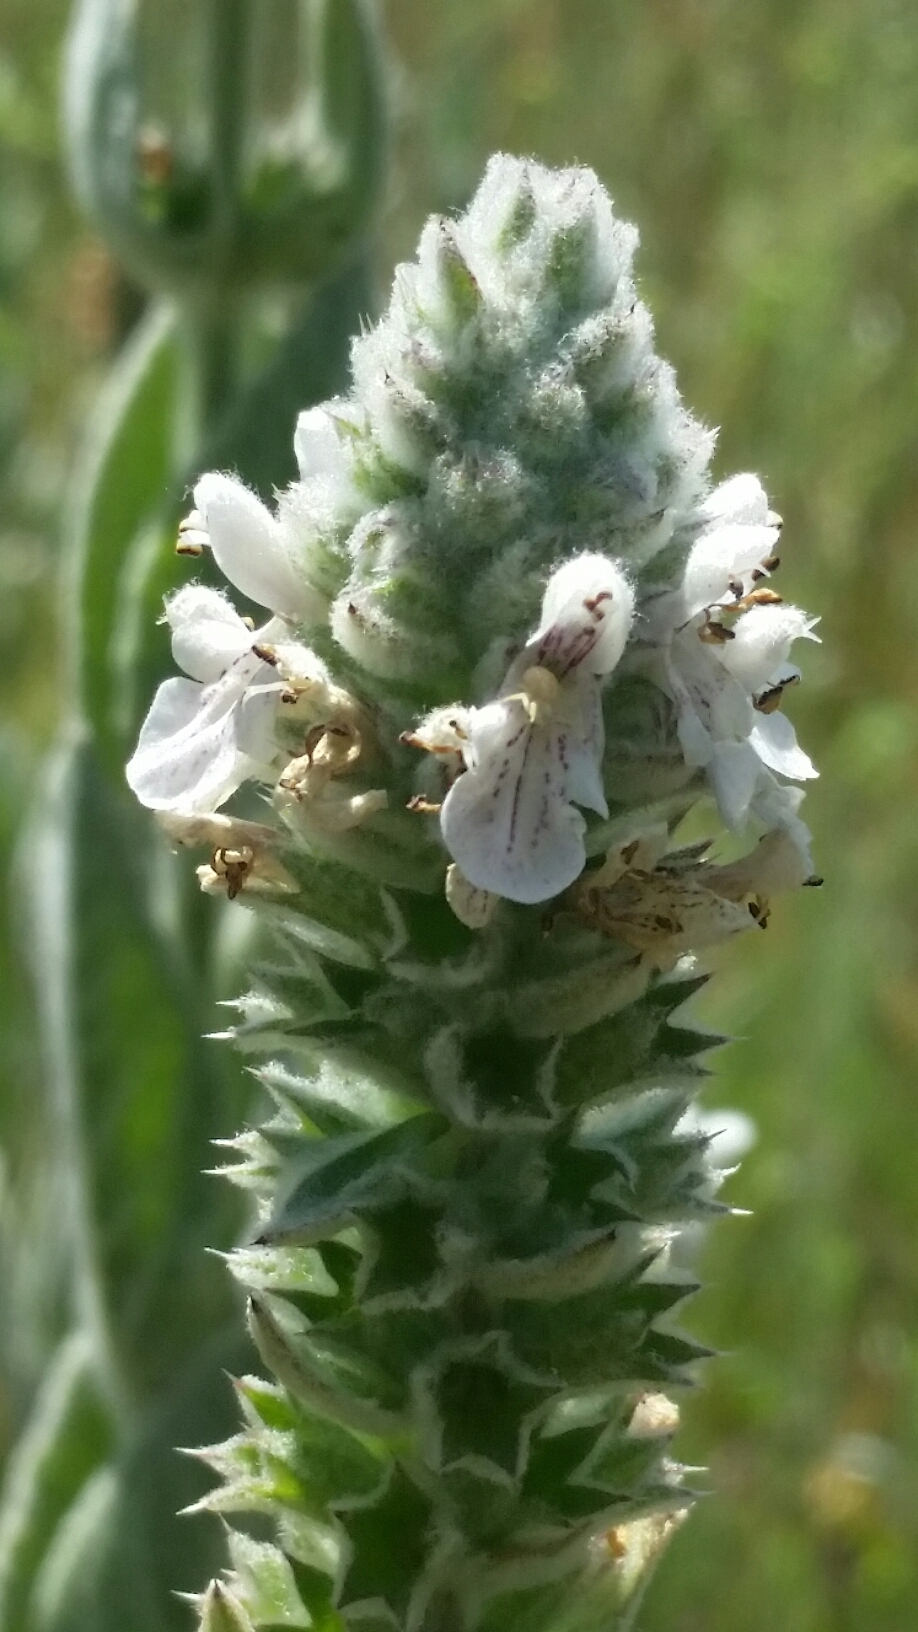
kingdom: Plantae
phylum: Tracheophyta
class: Magnoliopsida
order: Lamiales
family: Lamiaceae
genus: Stachys
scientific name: Stachys albens
